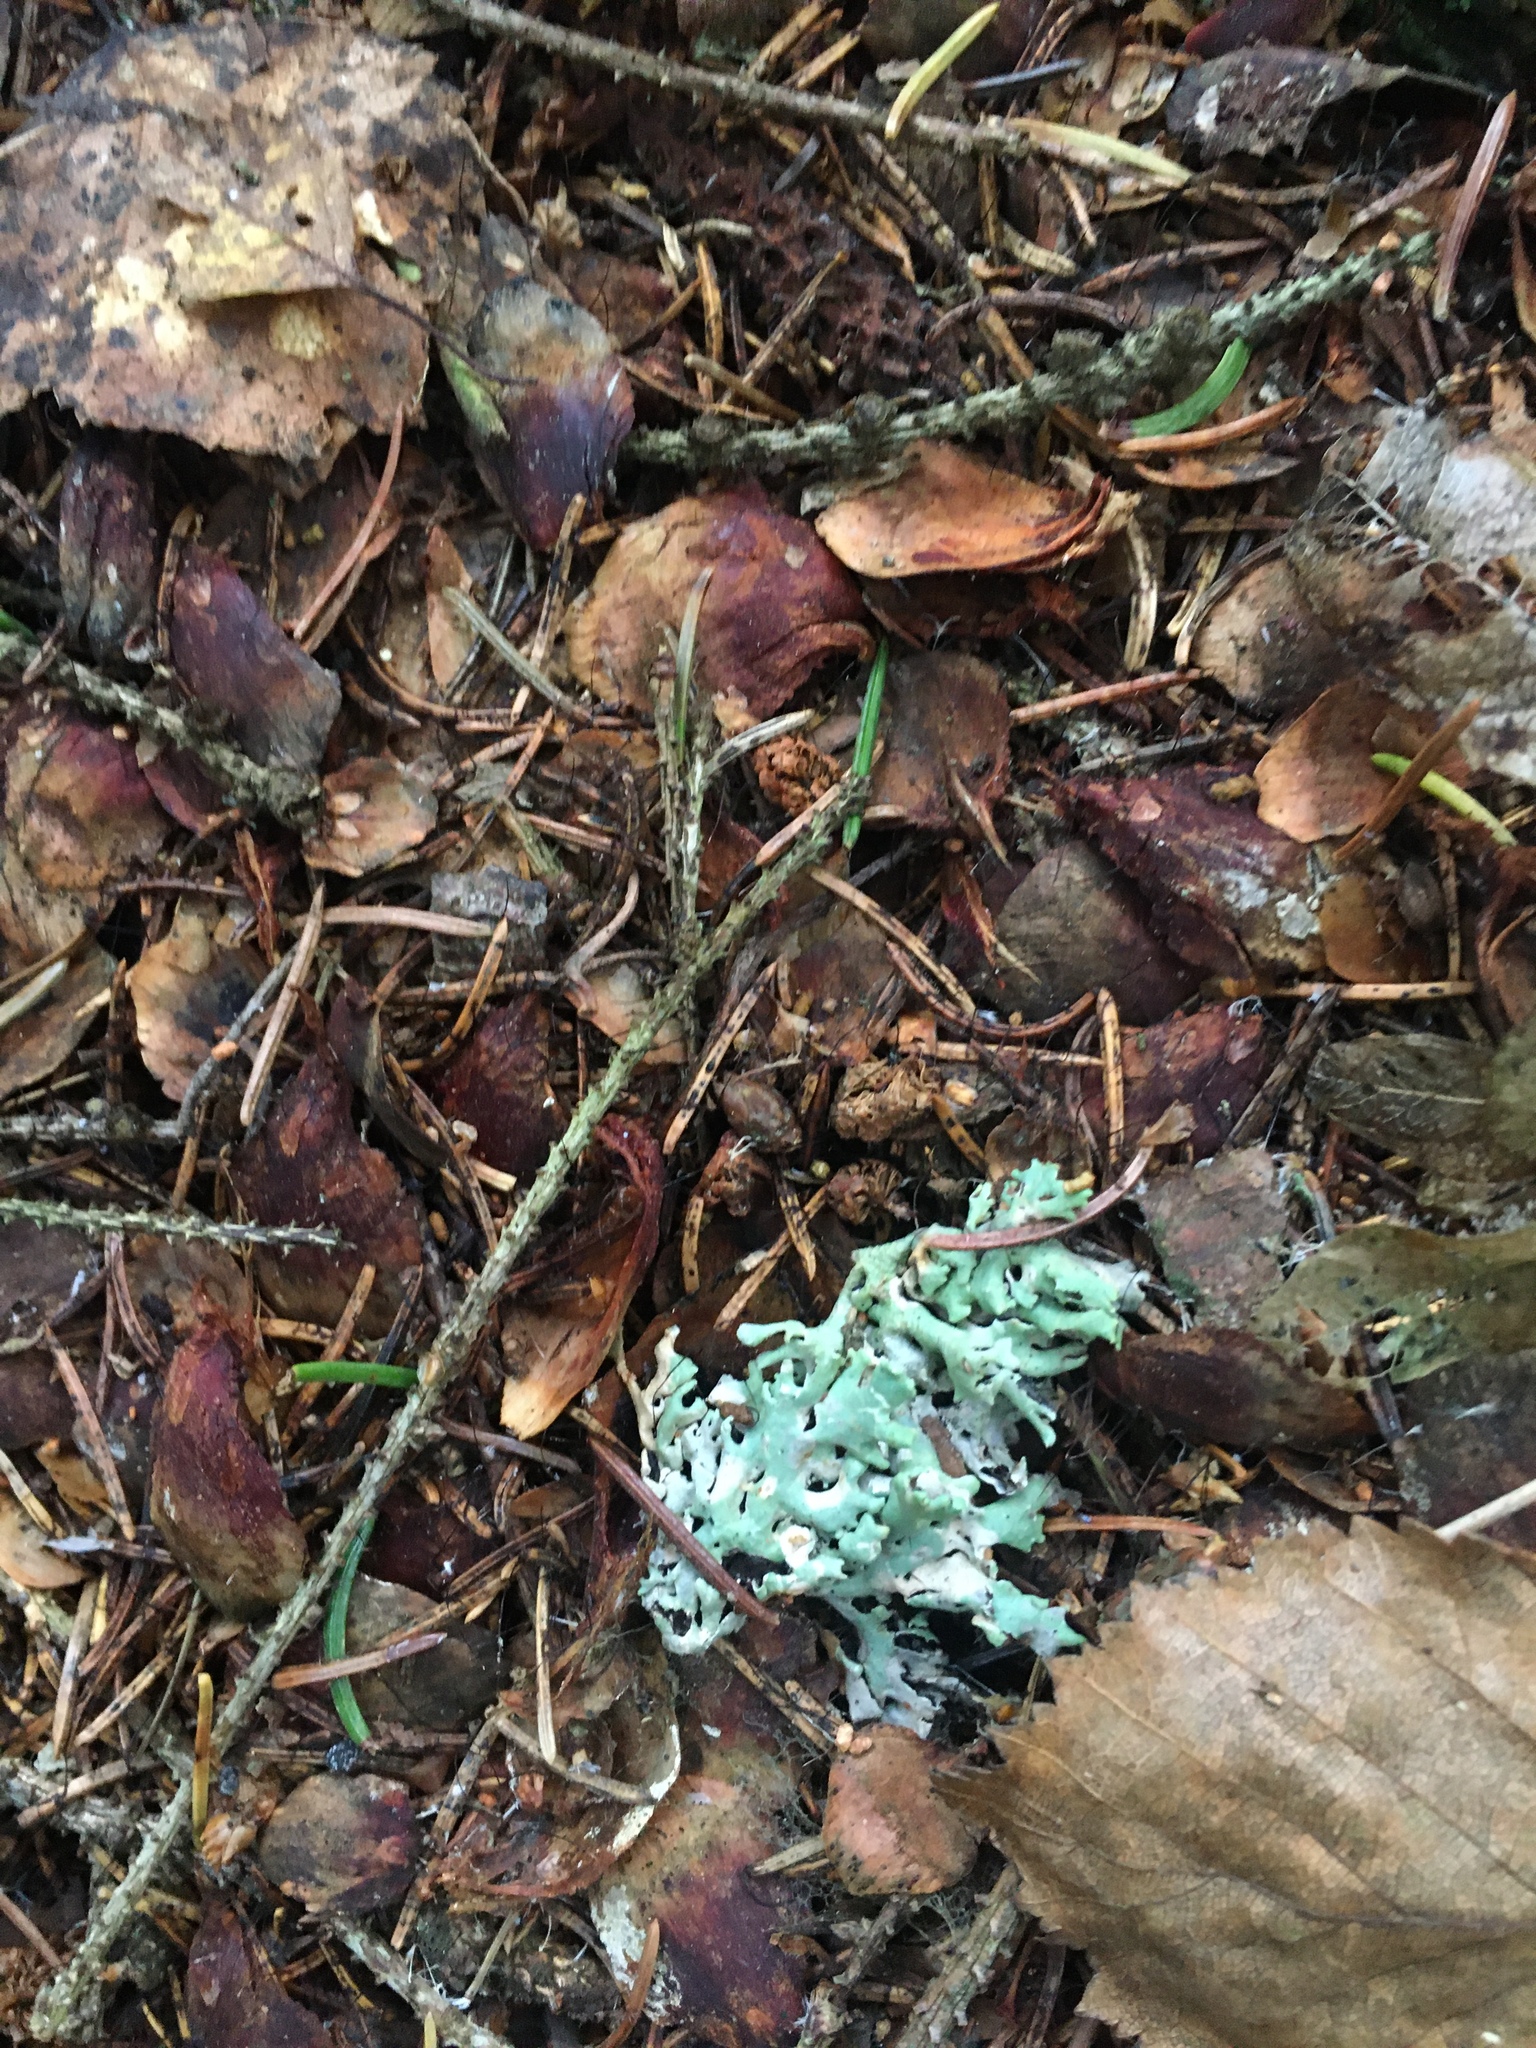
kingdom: Fungi
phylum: Ascomycota
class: Lecanoromycetes
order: Lecanorales
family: Parmeliaceae
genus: Hypogymnia
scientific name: Hypogymnia physodes
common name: Dark crottle
